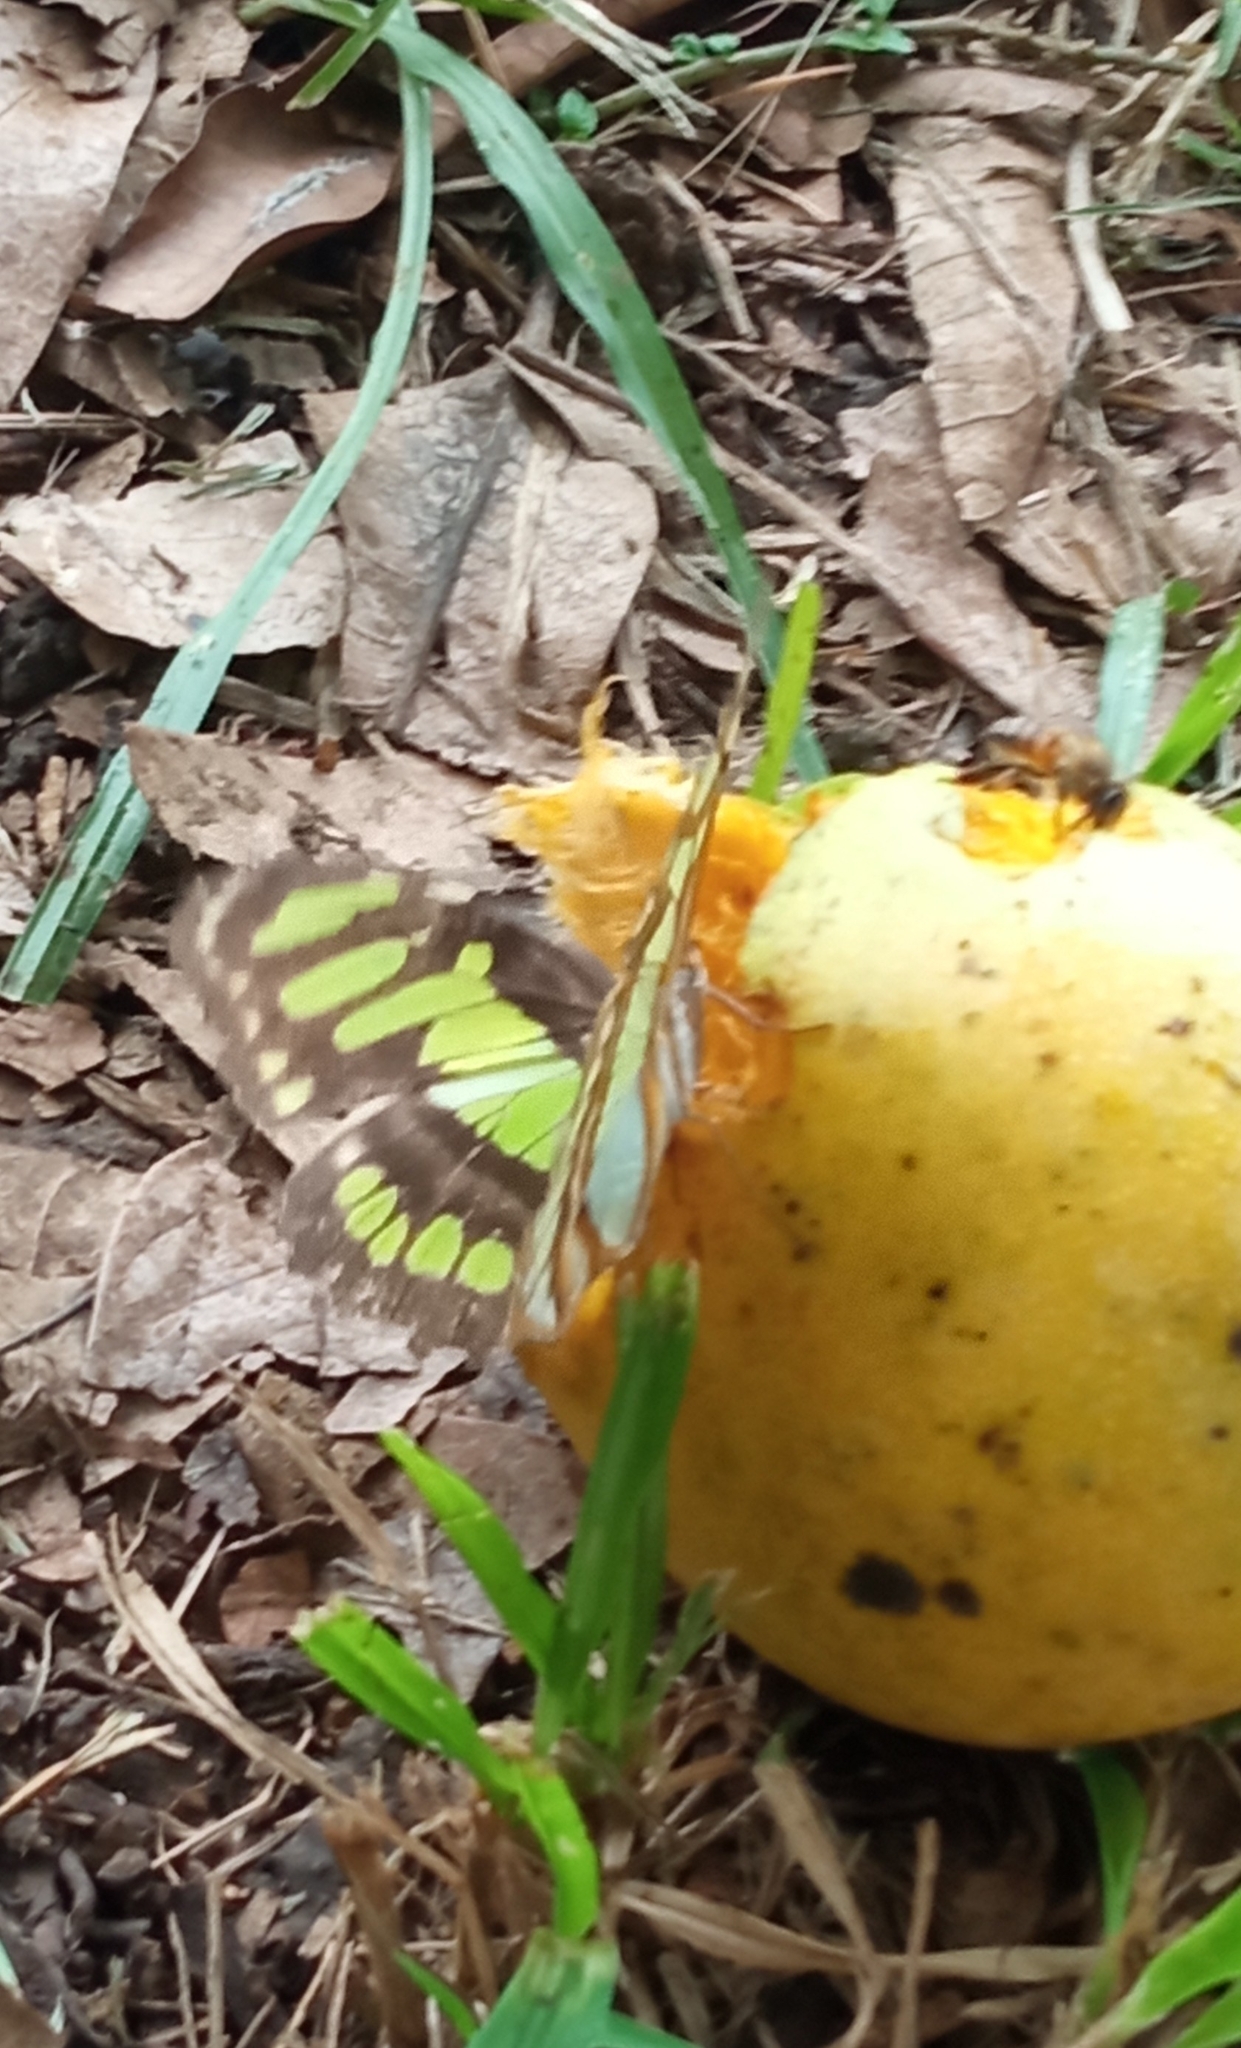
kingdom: Animalia
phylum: Arthropoda
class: Insecta
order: Lepidoptera
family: Nymphalidae
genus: Siproeta
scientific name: Siproeta stelenes
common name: Malachite
